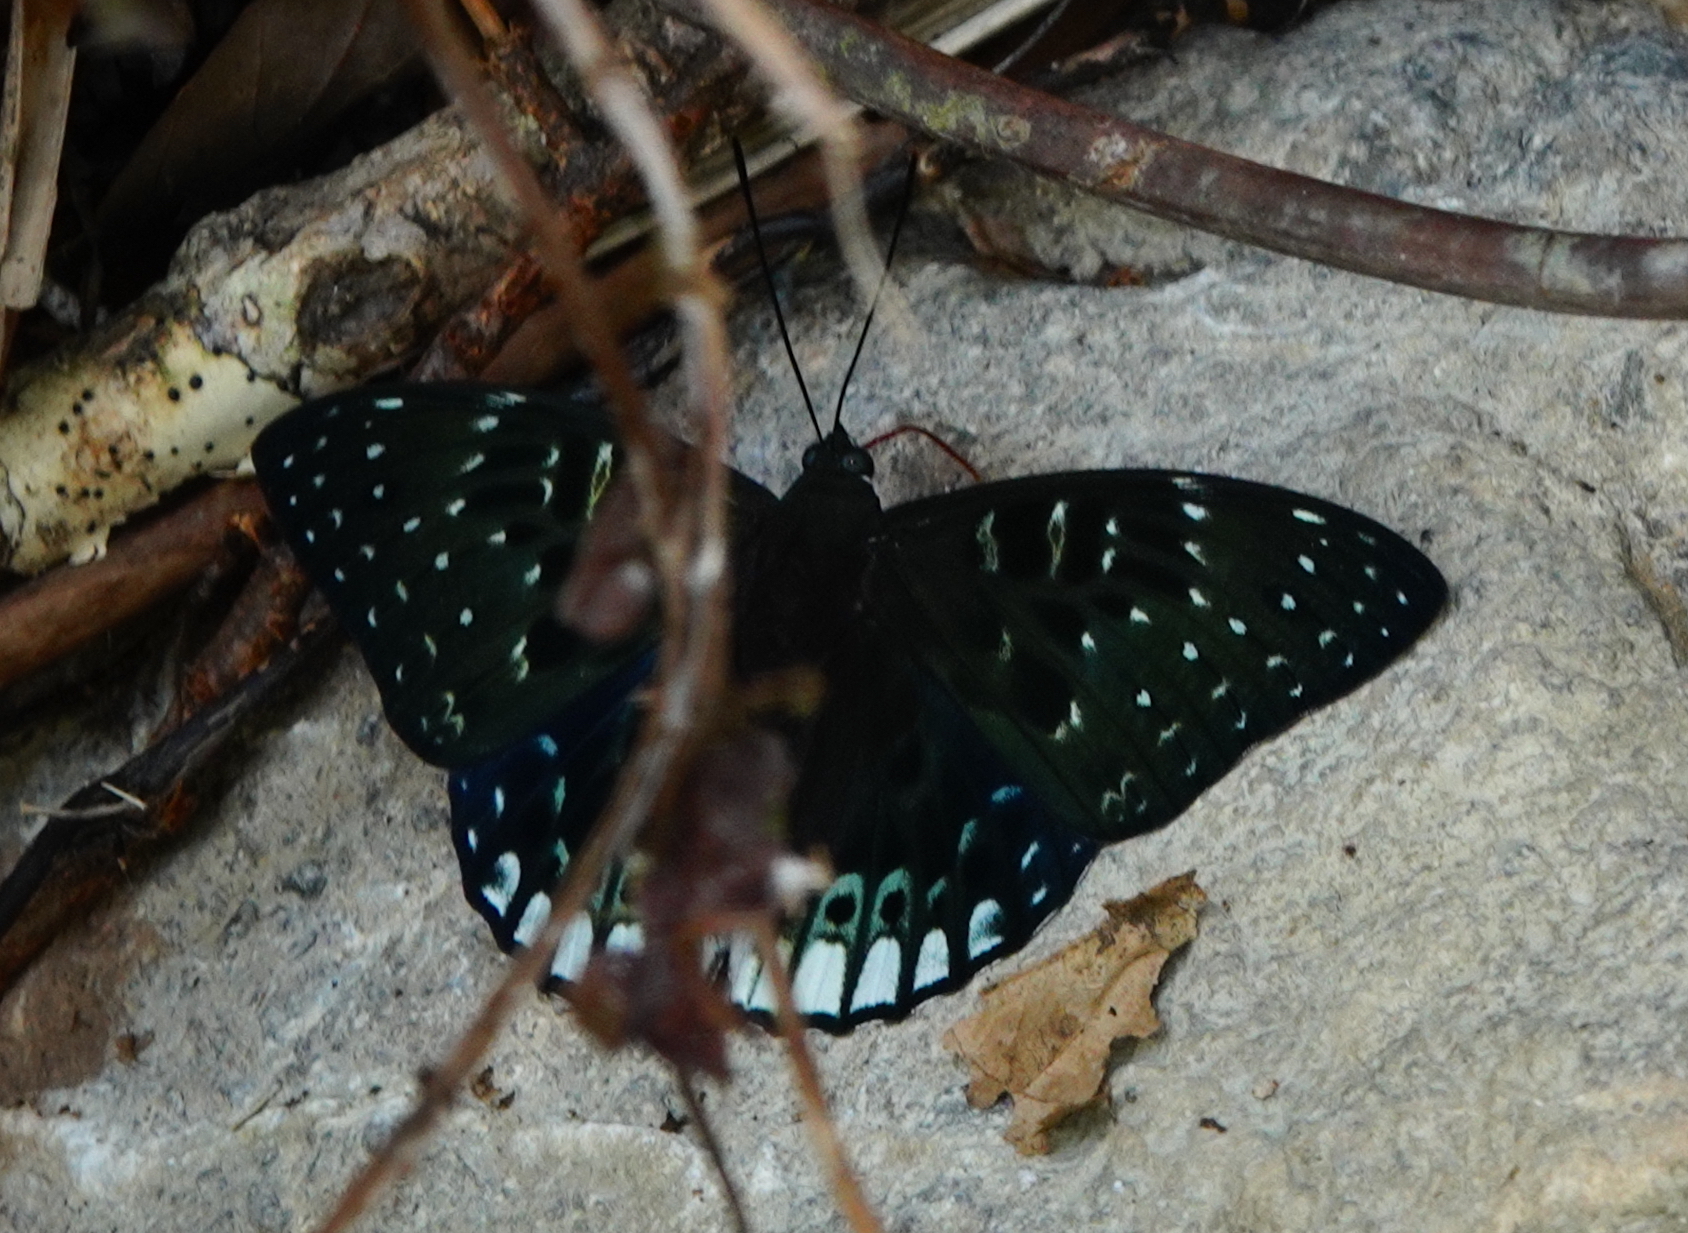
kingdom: Animalia
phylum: Arthropoda
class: Insecta
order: Lepidoptera
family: Nymphalidae
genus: Dichorragia
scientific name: Dichorragia ninus
